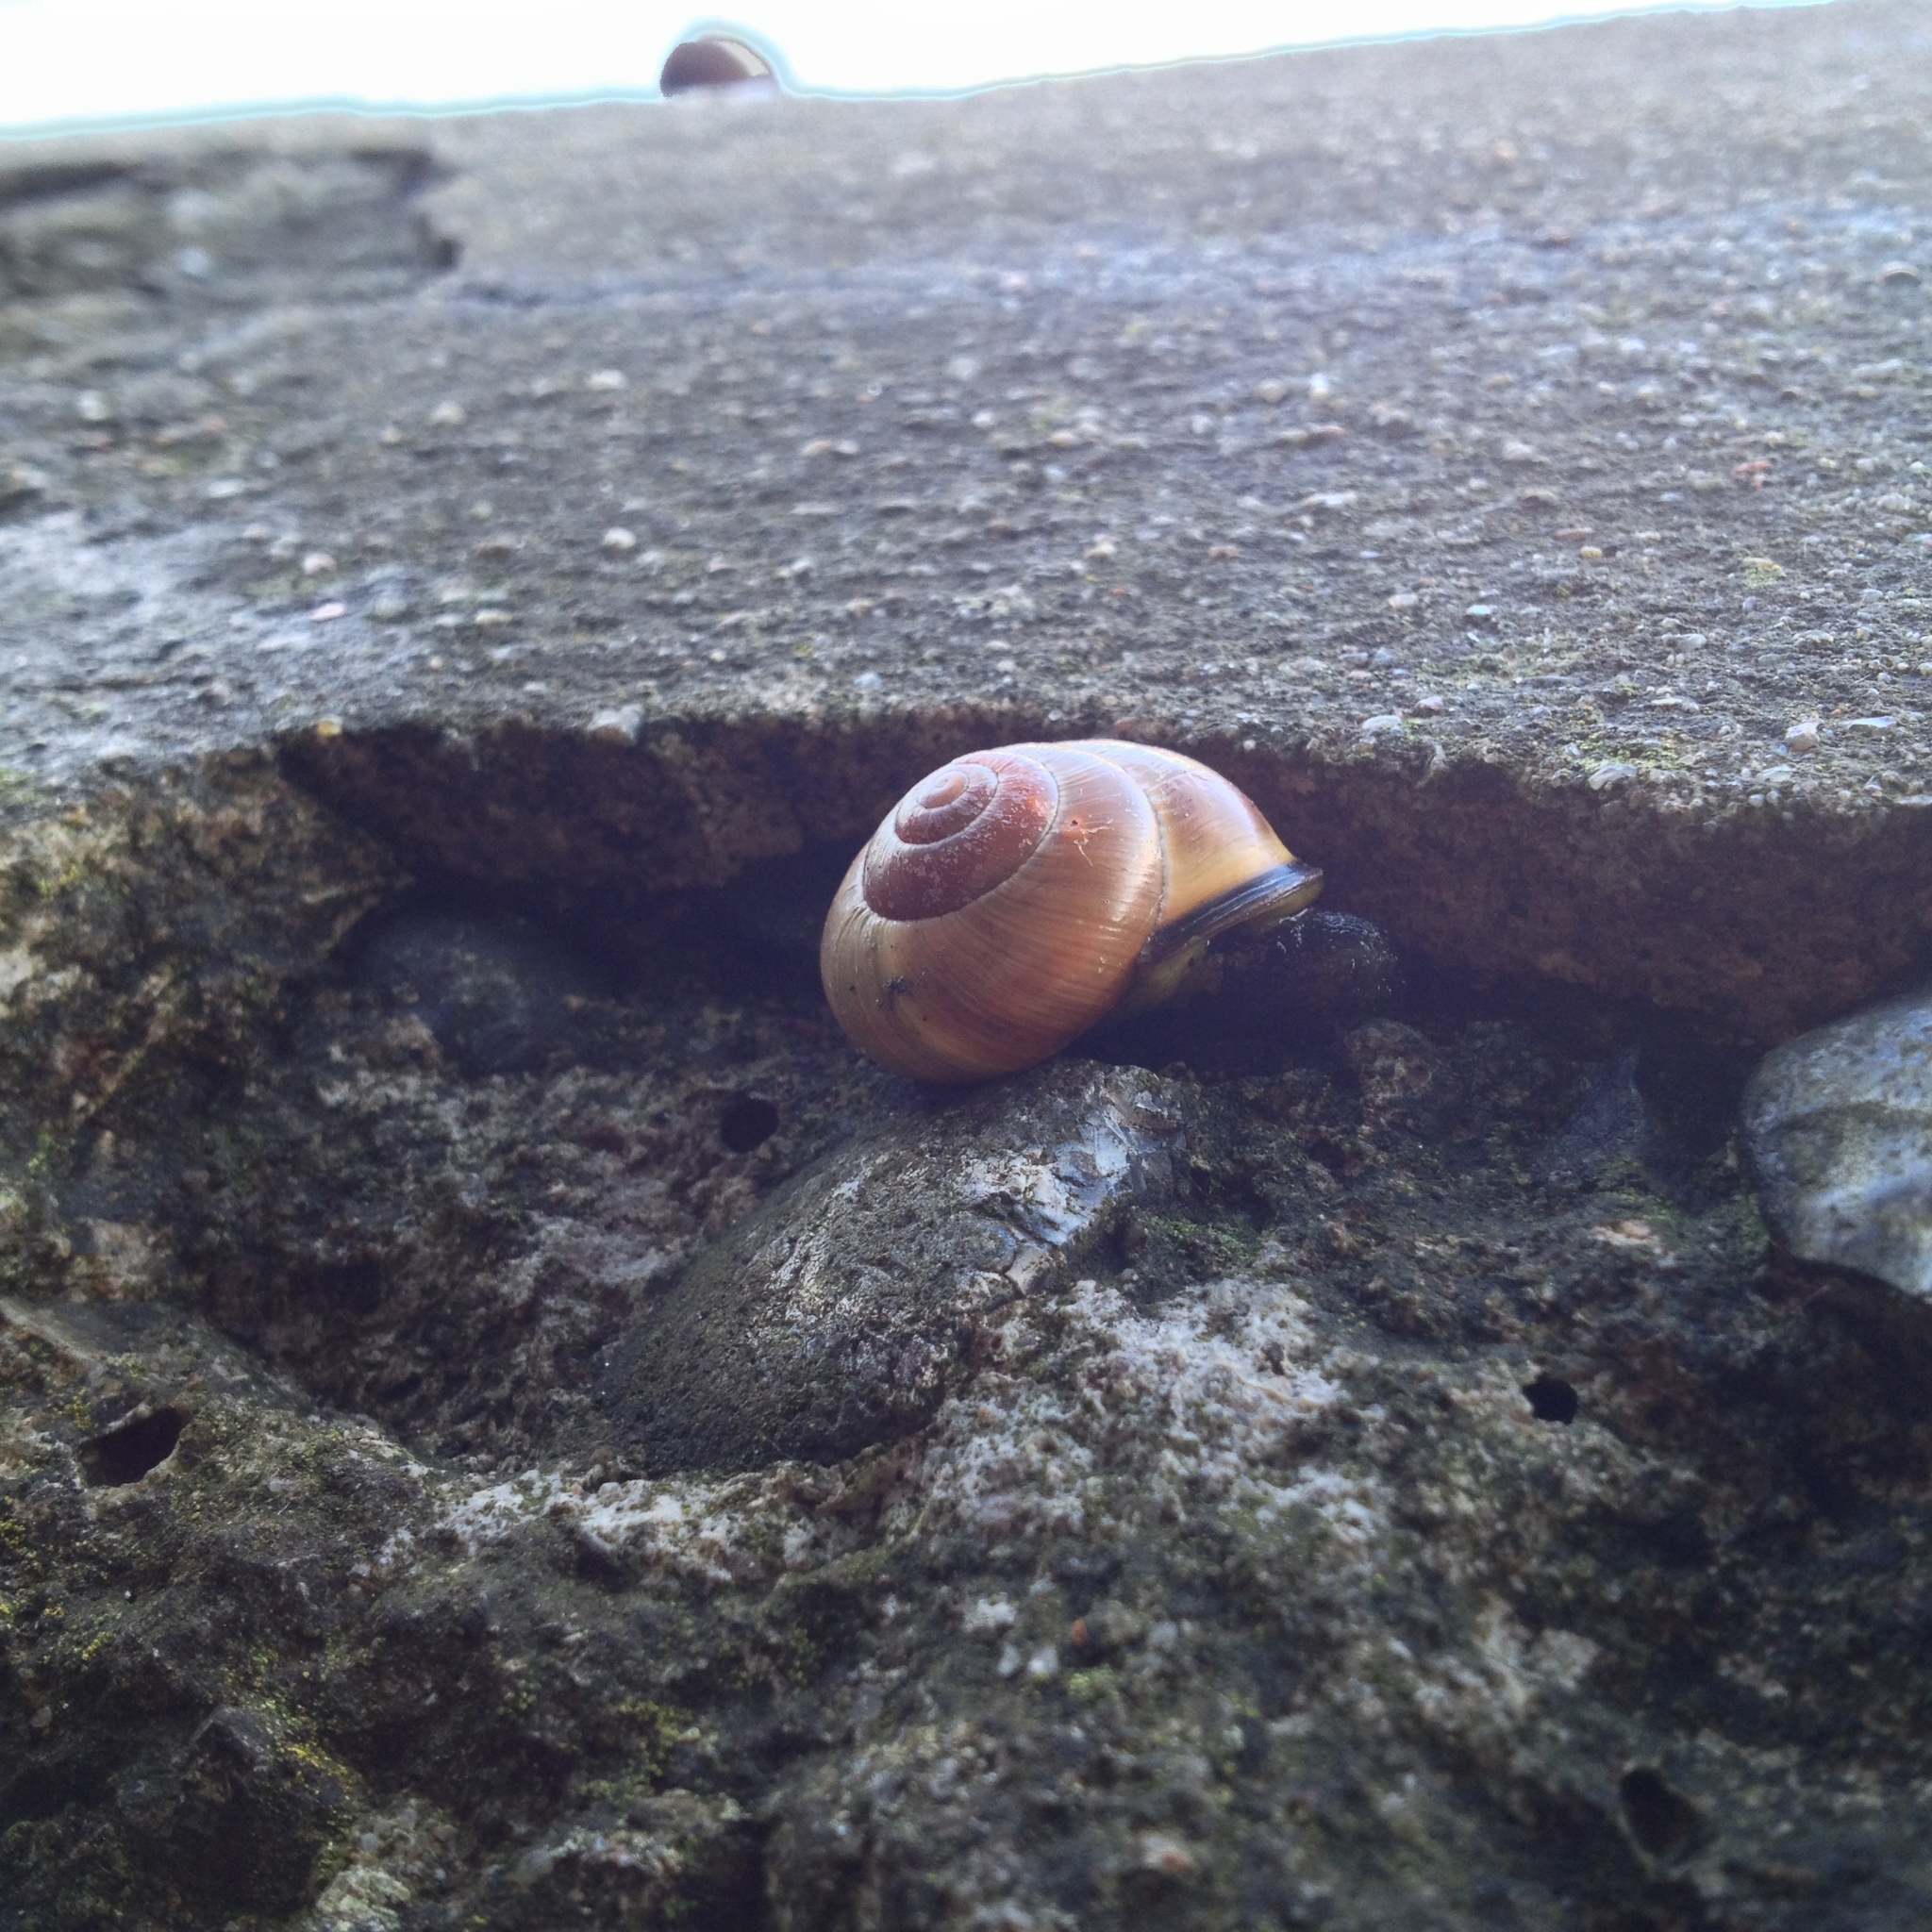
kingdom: Animalia
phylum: Mollusca
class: Gastropoda
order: Stylommatophora
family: Helicidae
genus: Cepaea
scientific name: Cepaea nemoralis
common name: Grovesnail
